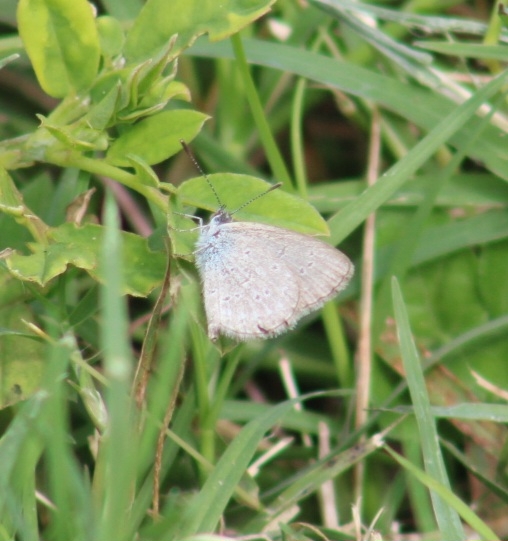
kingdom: Animalia
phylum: Arthropoda
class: Insecta
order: Lepidoptera
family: Lycaenidae
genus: Zizina
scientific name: Zizina otis
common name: Lesser grass blue
